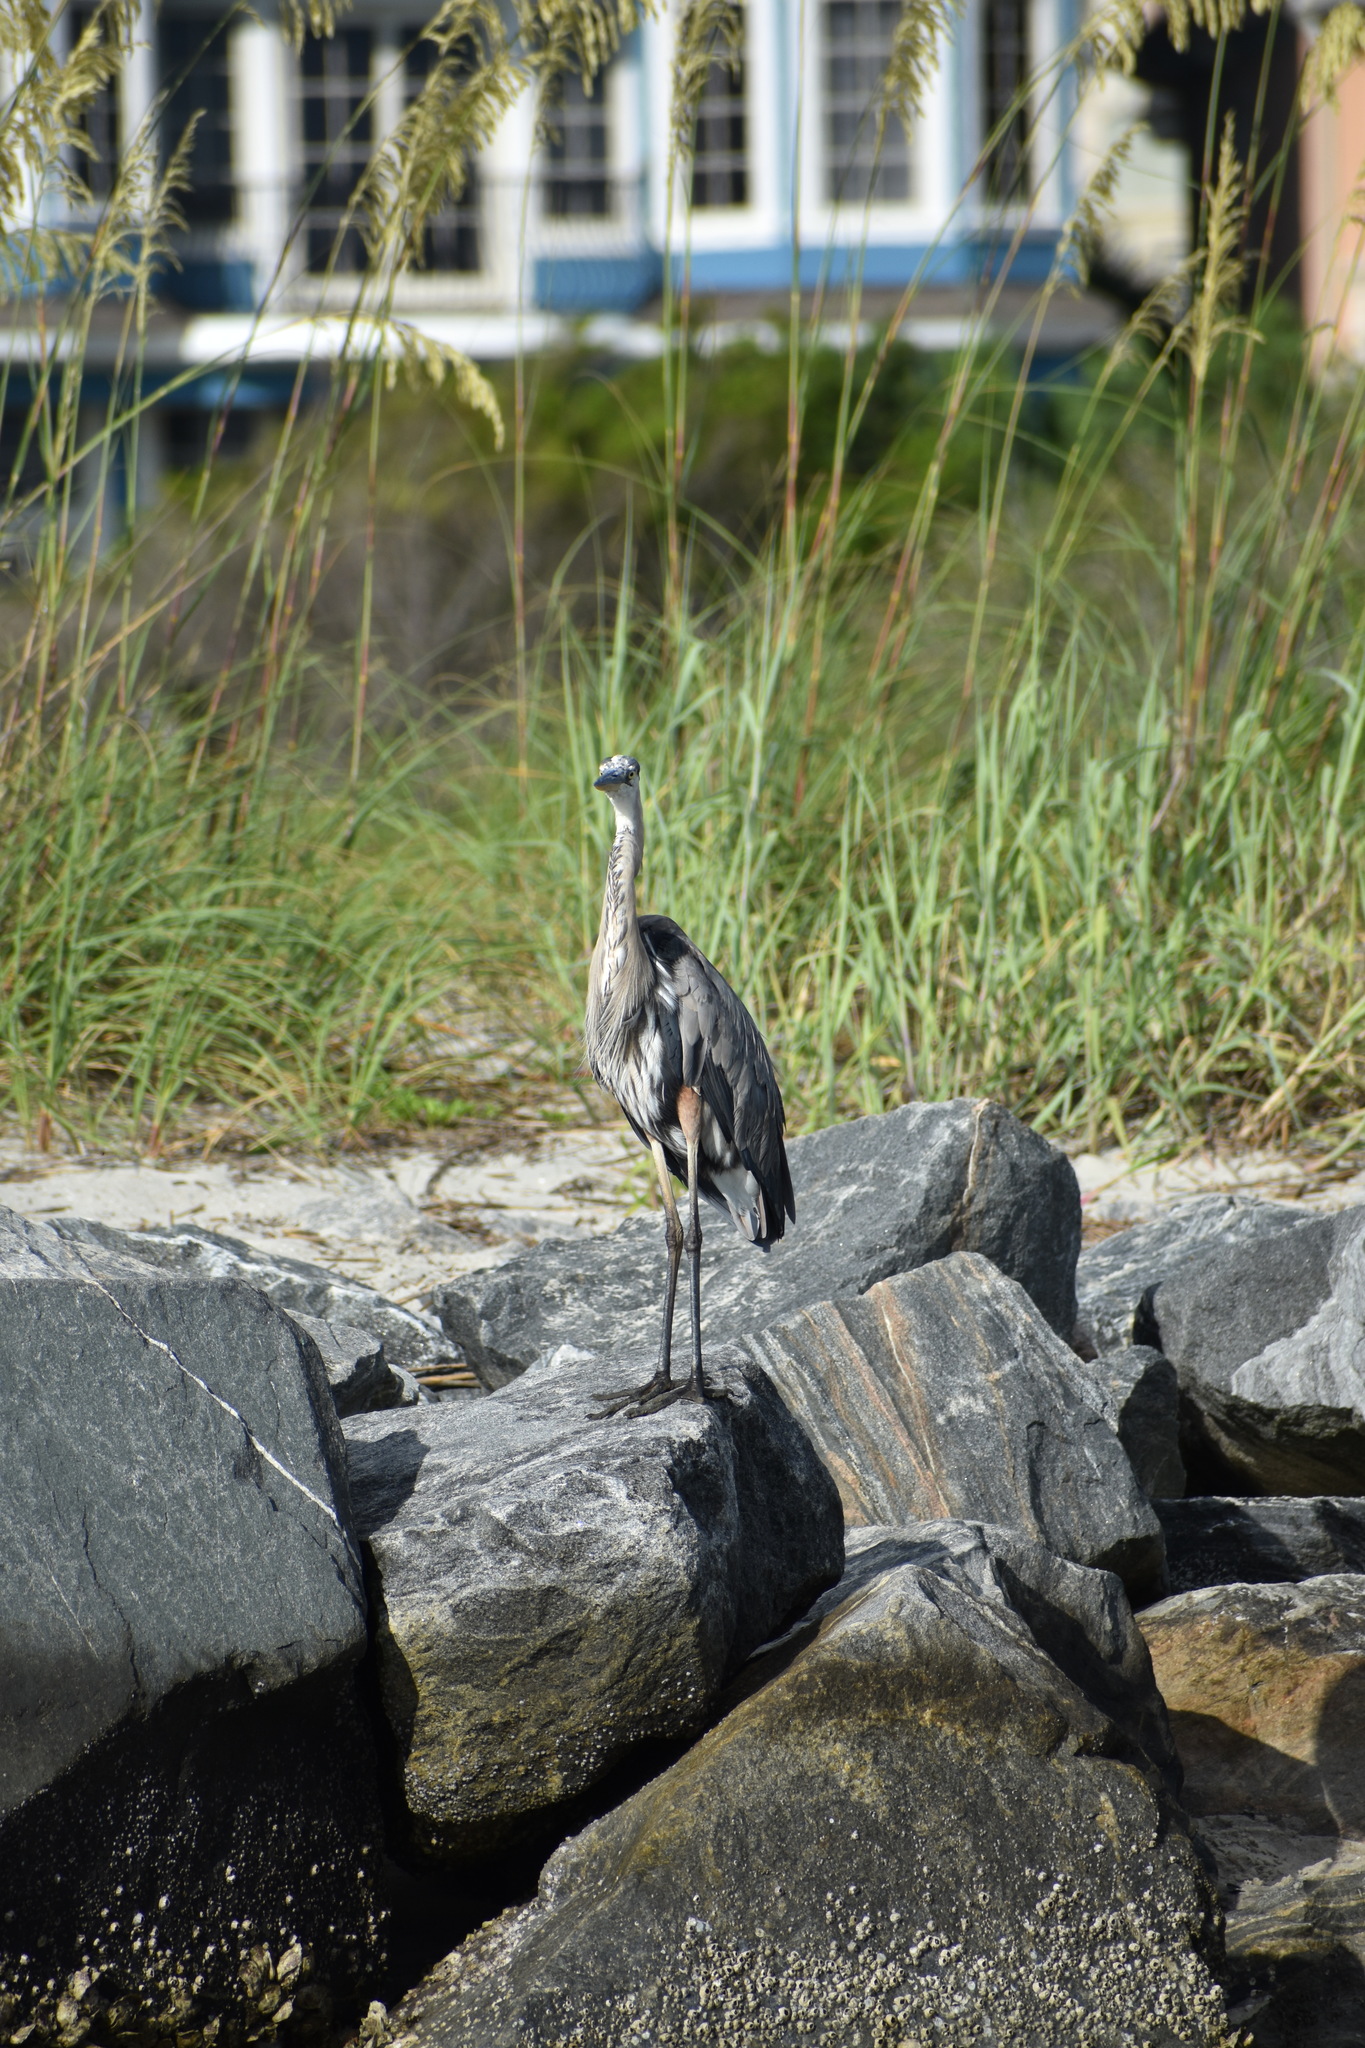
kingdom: Animalia
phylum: Chordata
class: Aves
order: Pelecaniformes
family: Ardeidae
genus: Ardea
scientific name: Ardea herodias
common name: Great blue heron
